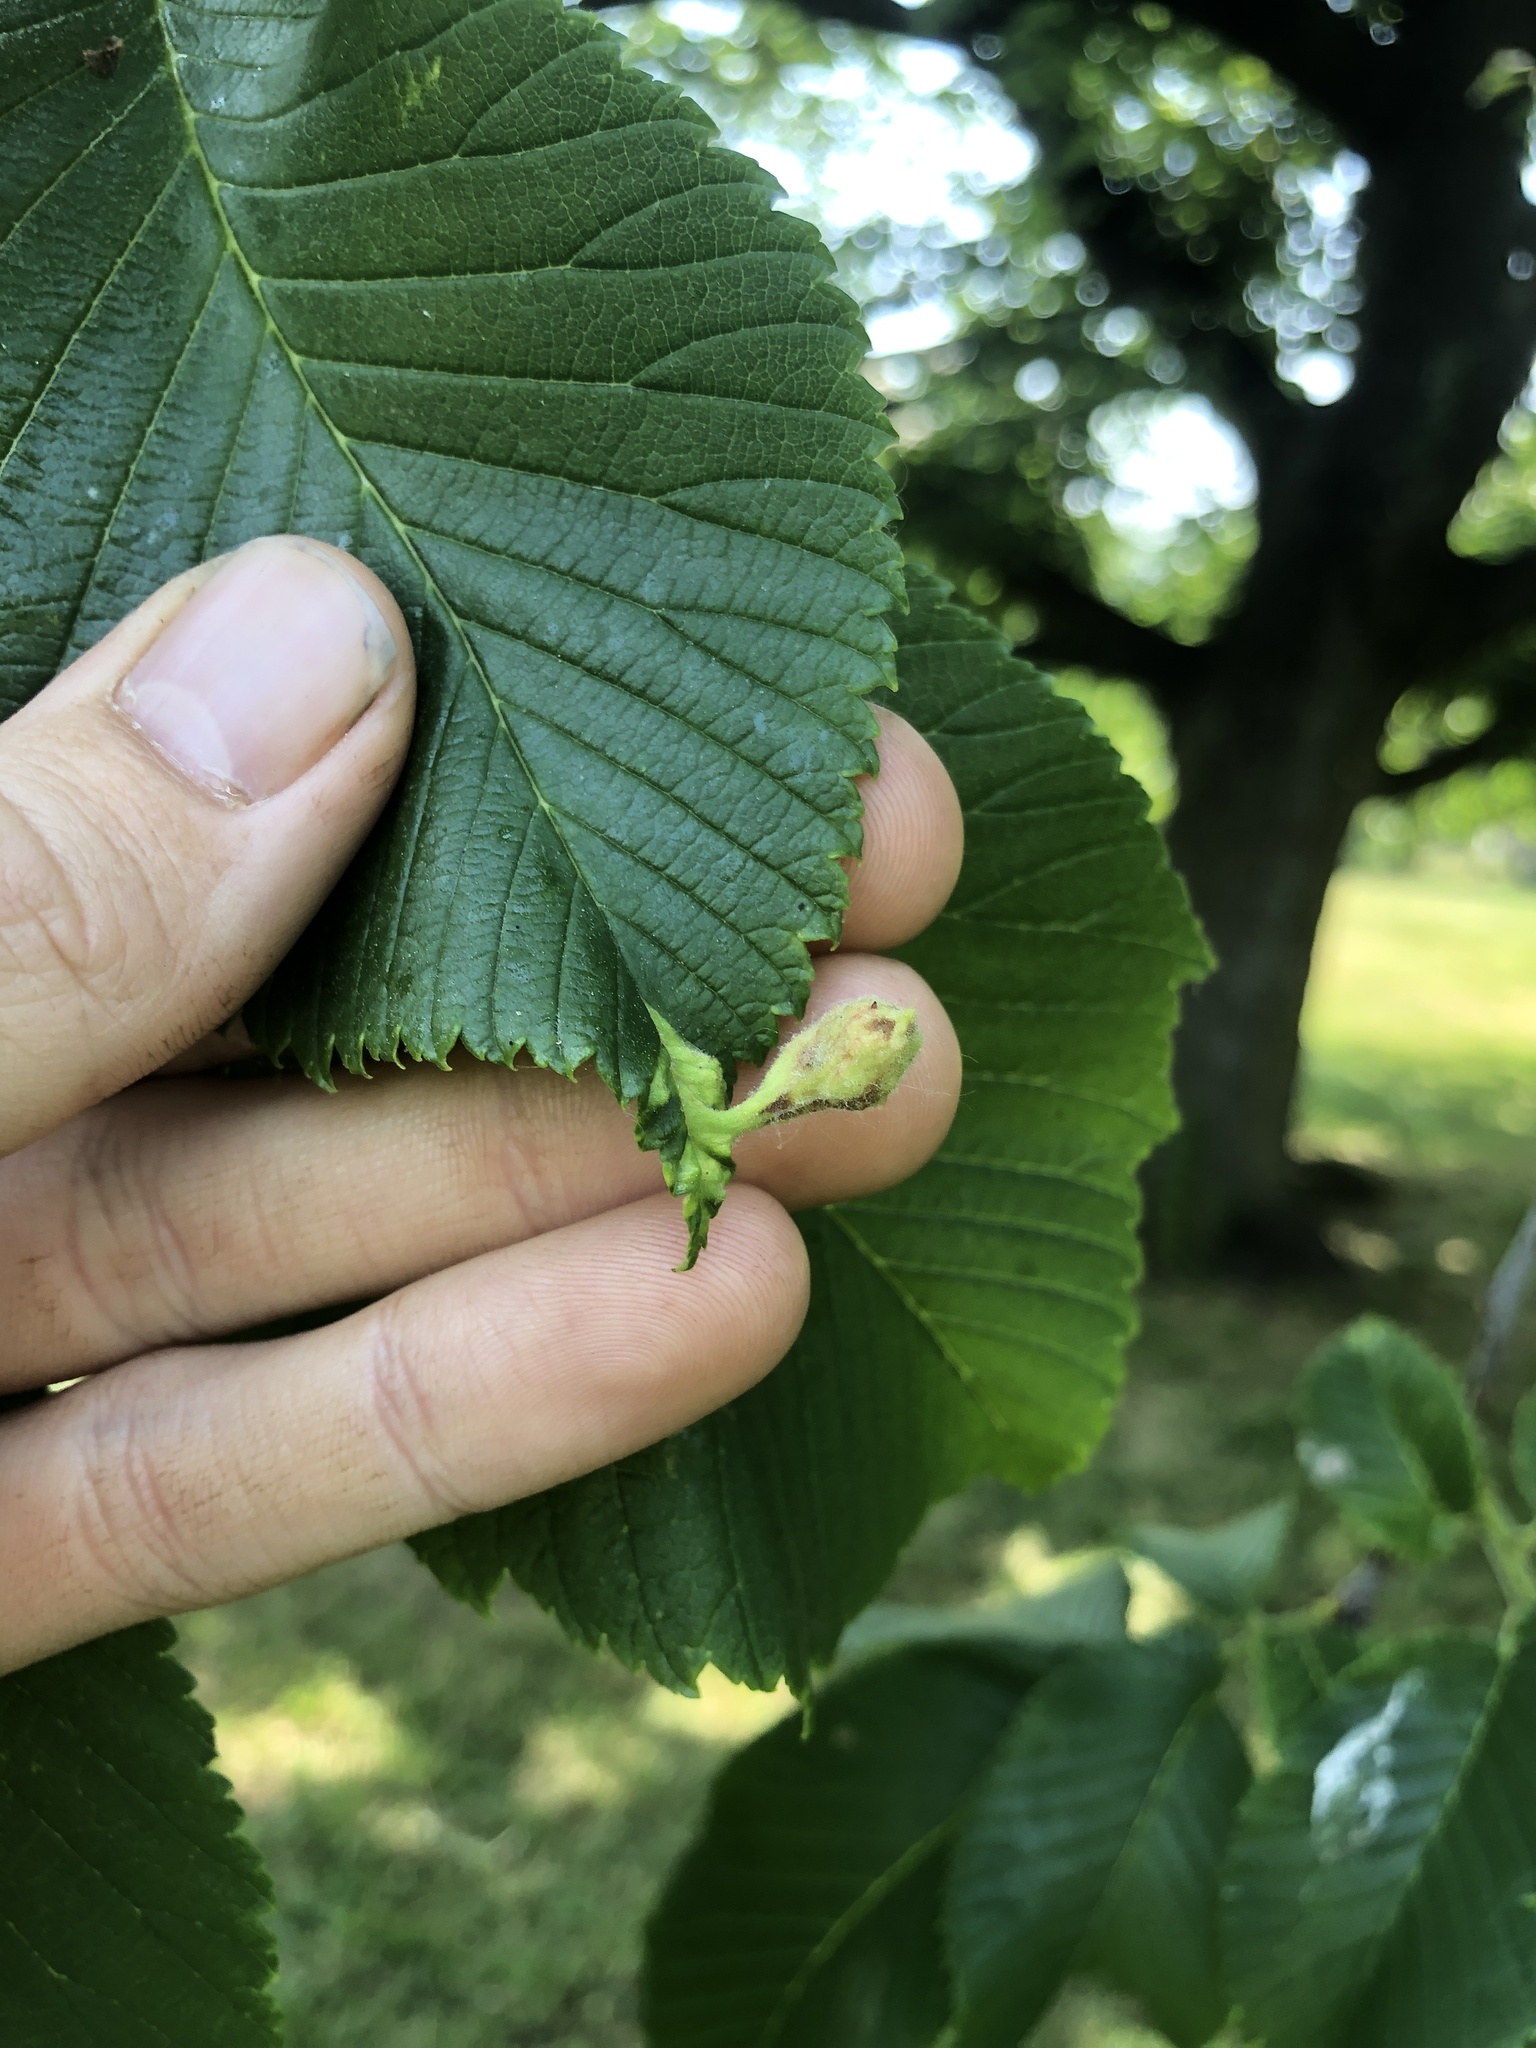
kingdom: Animalia
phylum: Arthropoda
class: Insecta
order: Hemiptera
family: Aphididae
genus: Tetraneura
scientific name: Tetraneura nigriabdominalis
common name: Aphid
